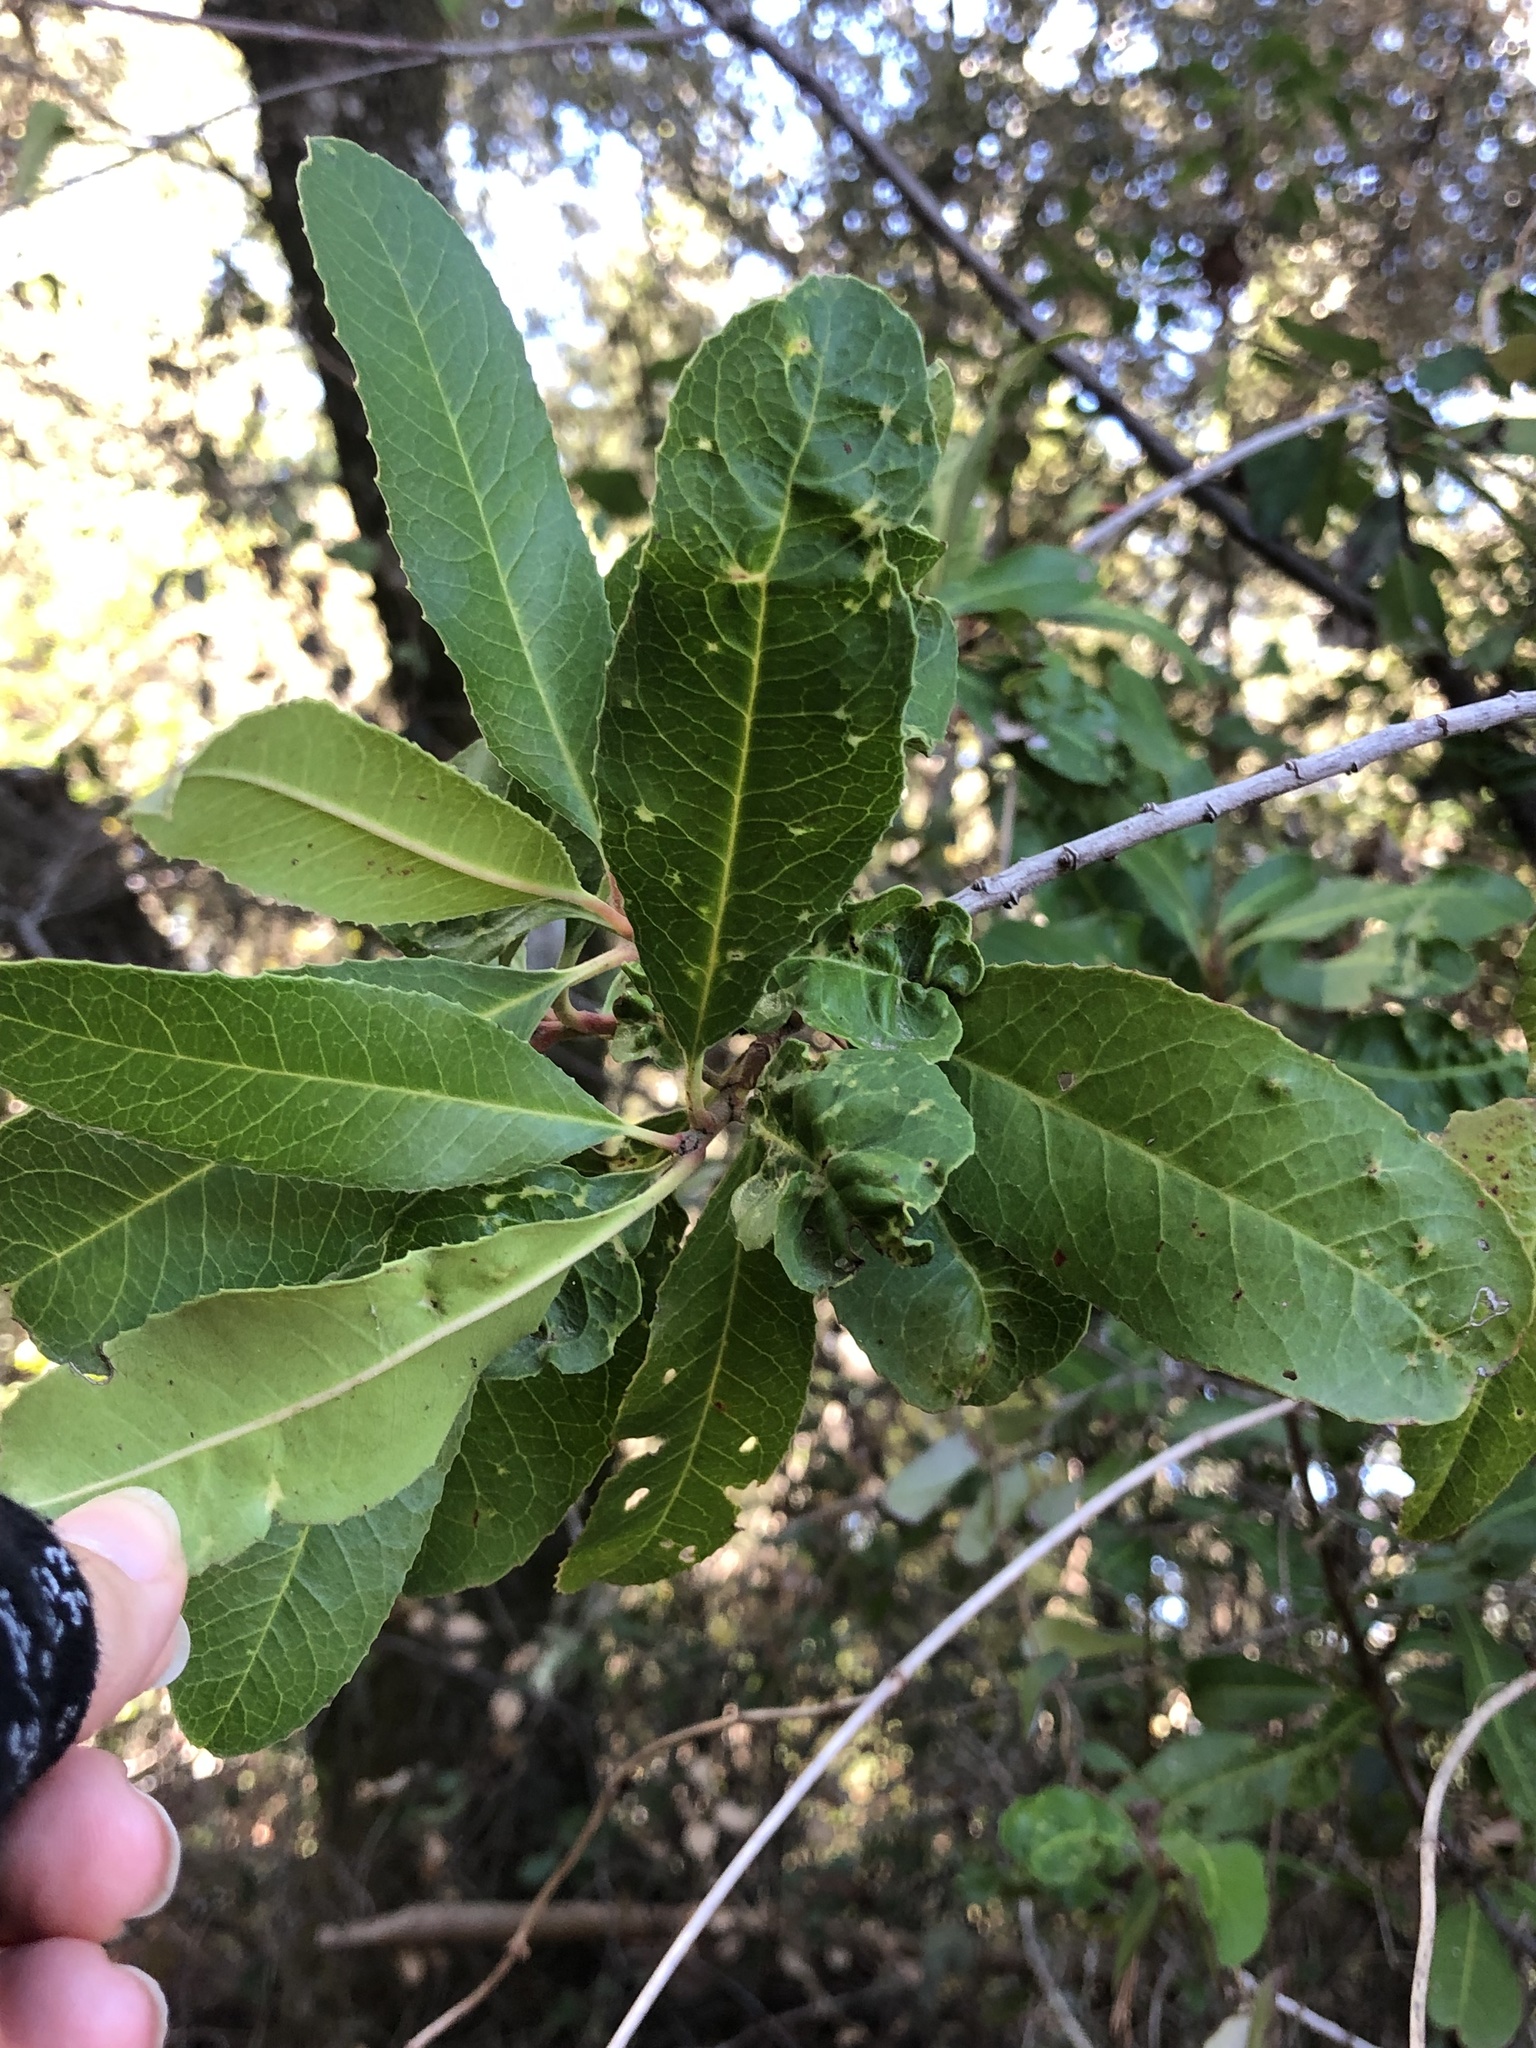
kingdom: Animalia
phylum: Arthropoda
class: Insecta
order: Thysanoptera
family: Phlaeothripidae
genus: Liothrips
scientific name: Liothrips ilex
